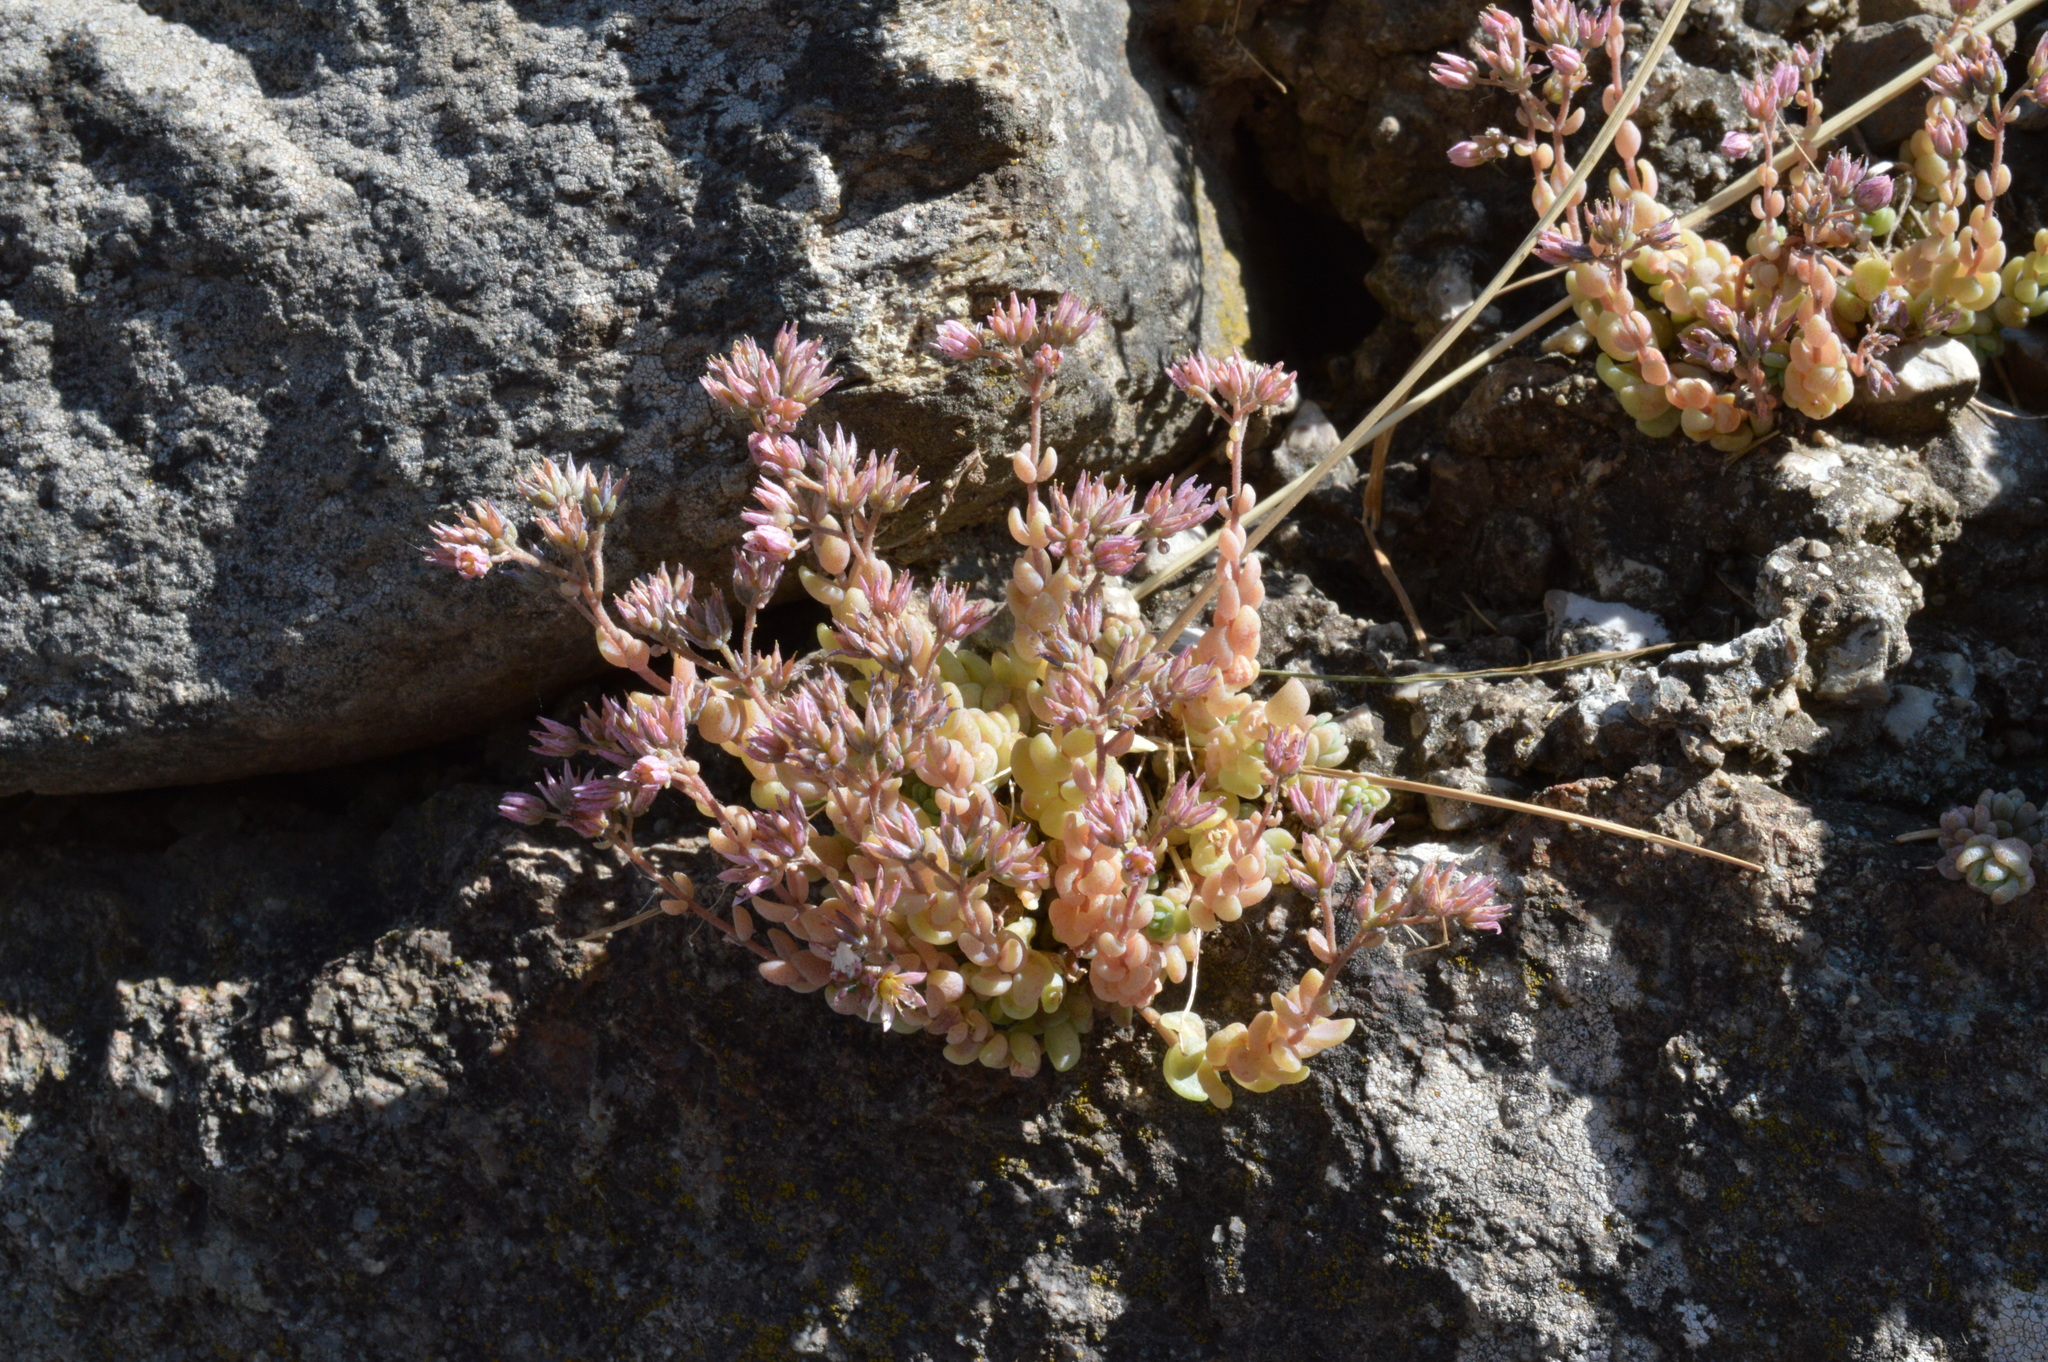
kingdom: Plantae
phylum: Tracheophyta
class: Magnoliopsida
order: Saxifragales
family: Crassulaceae
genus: Sedum
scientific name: Sedum dasyphyllum
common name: Thick-leaf stonecrop
